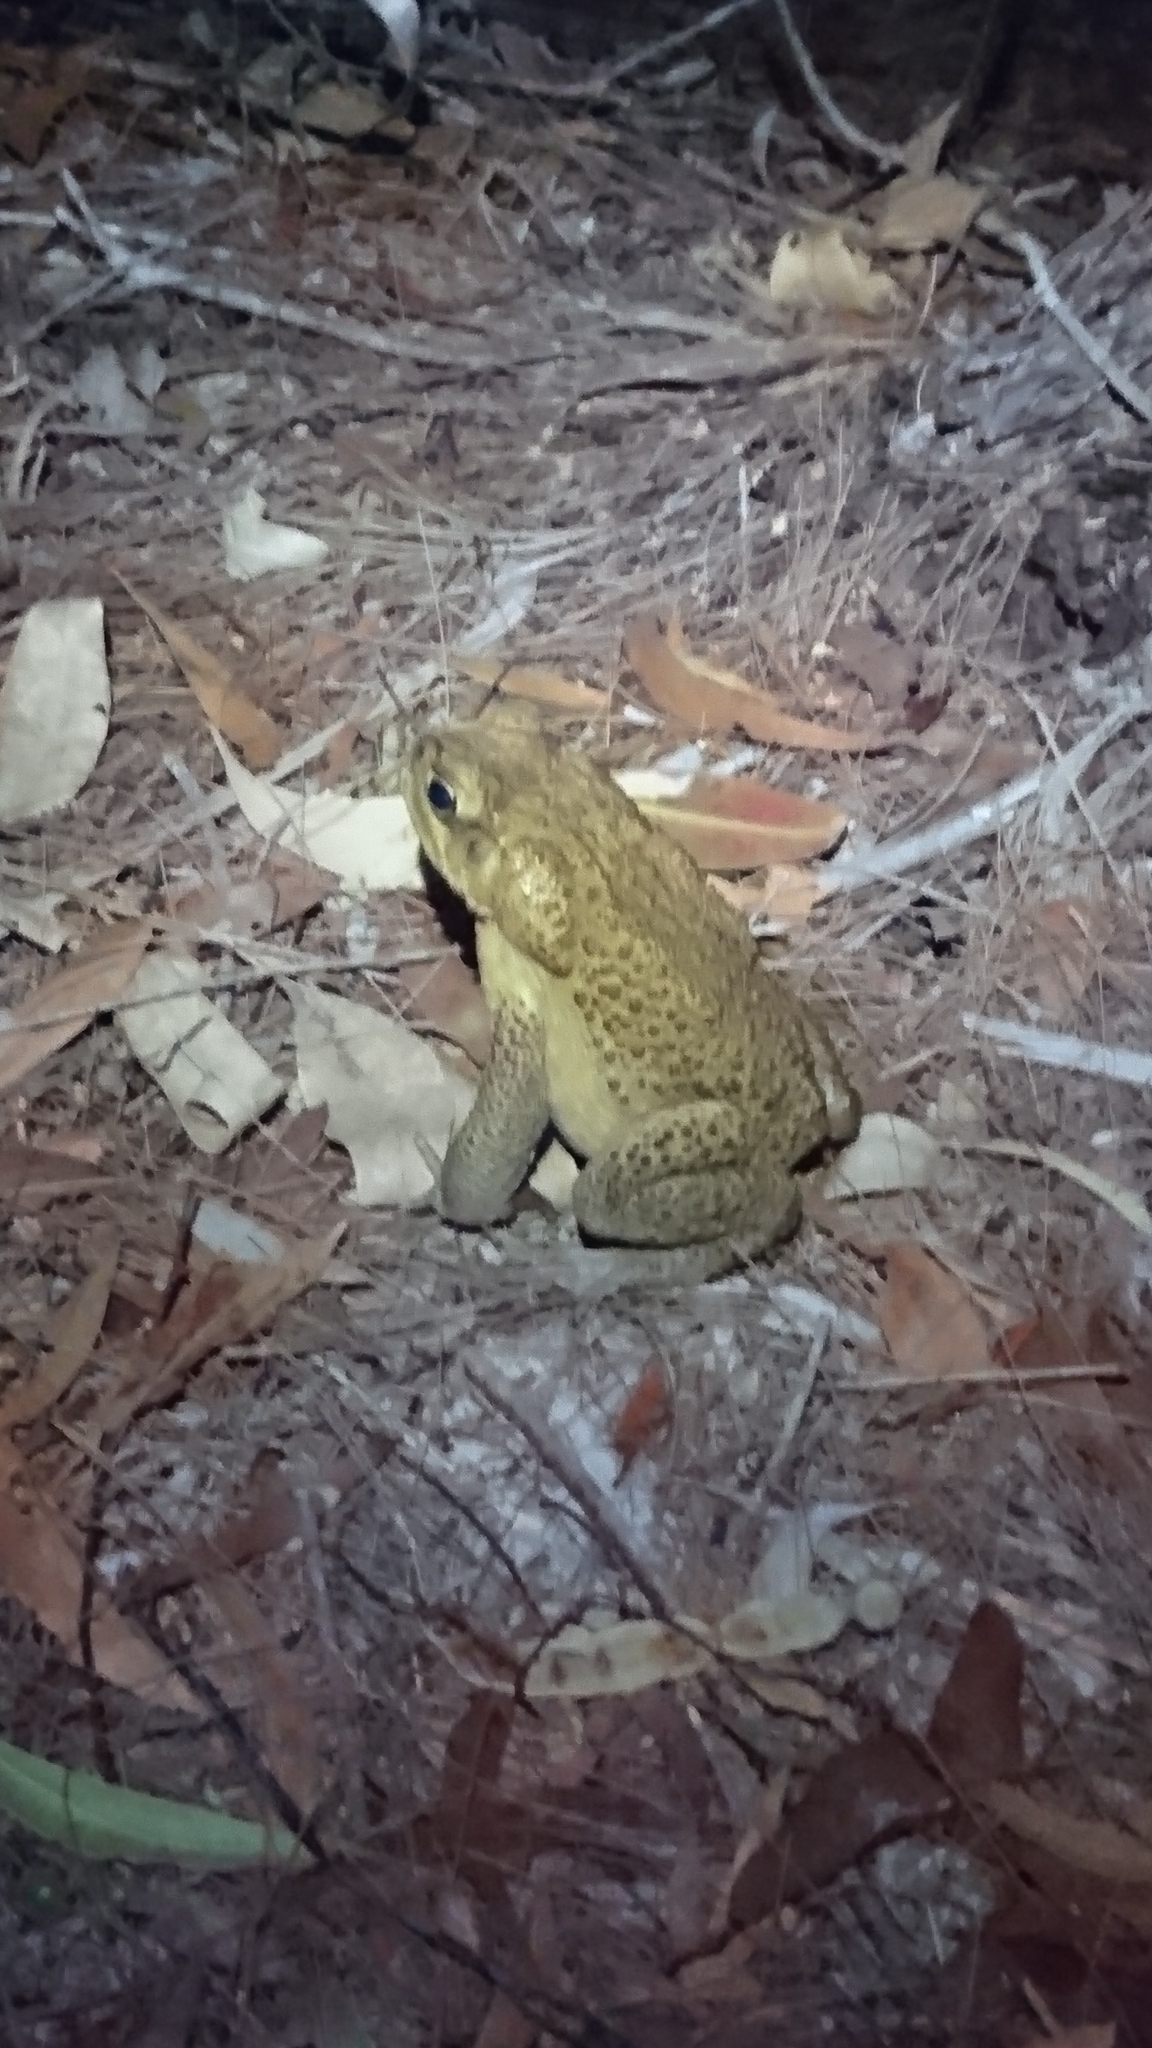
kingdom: Animalia
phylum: Chordata
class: Amphibia
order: Anura
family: Bufonidae
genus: Rhinella
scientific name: Rhinella marina
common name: Cane toad
